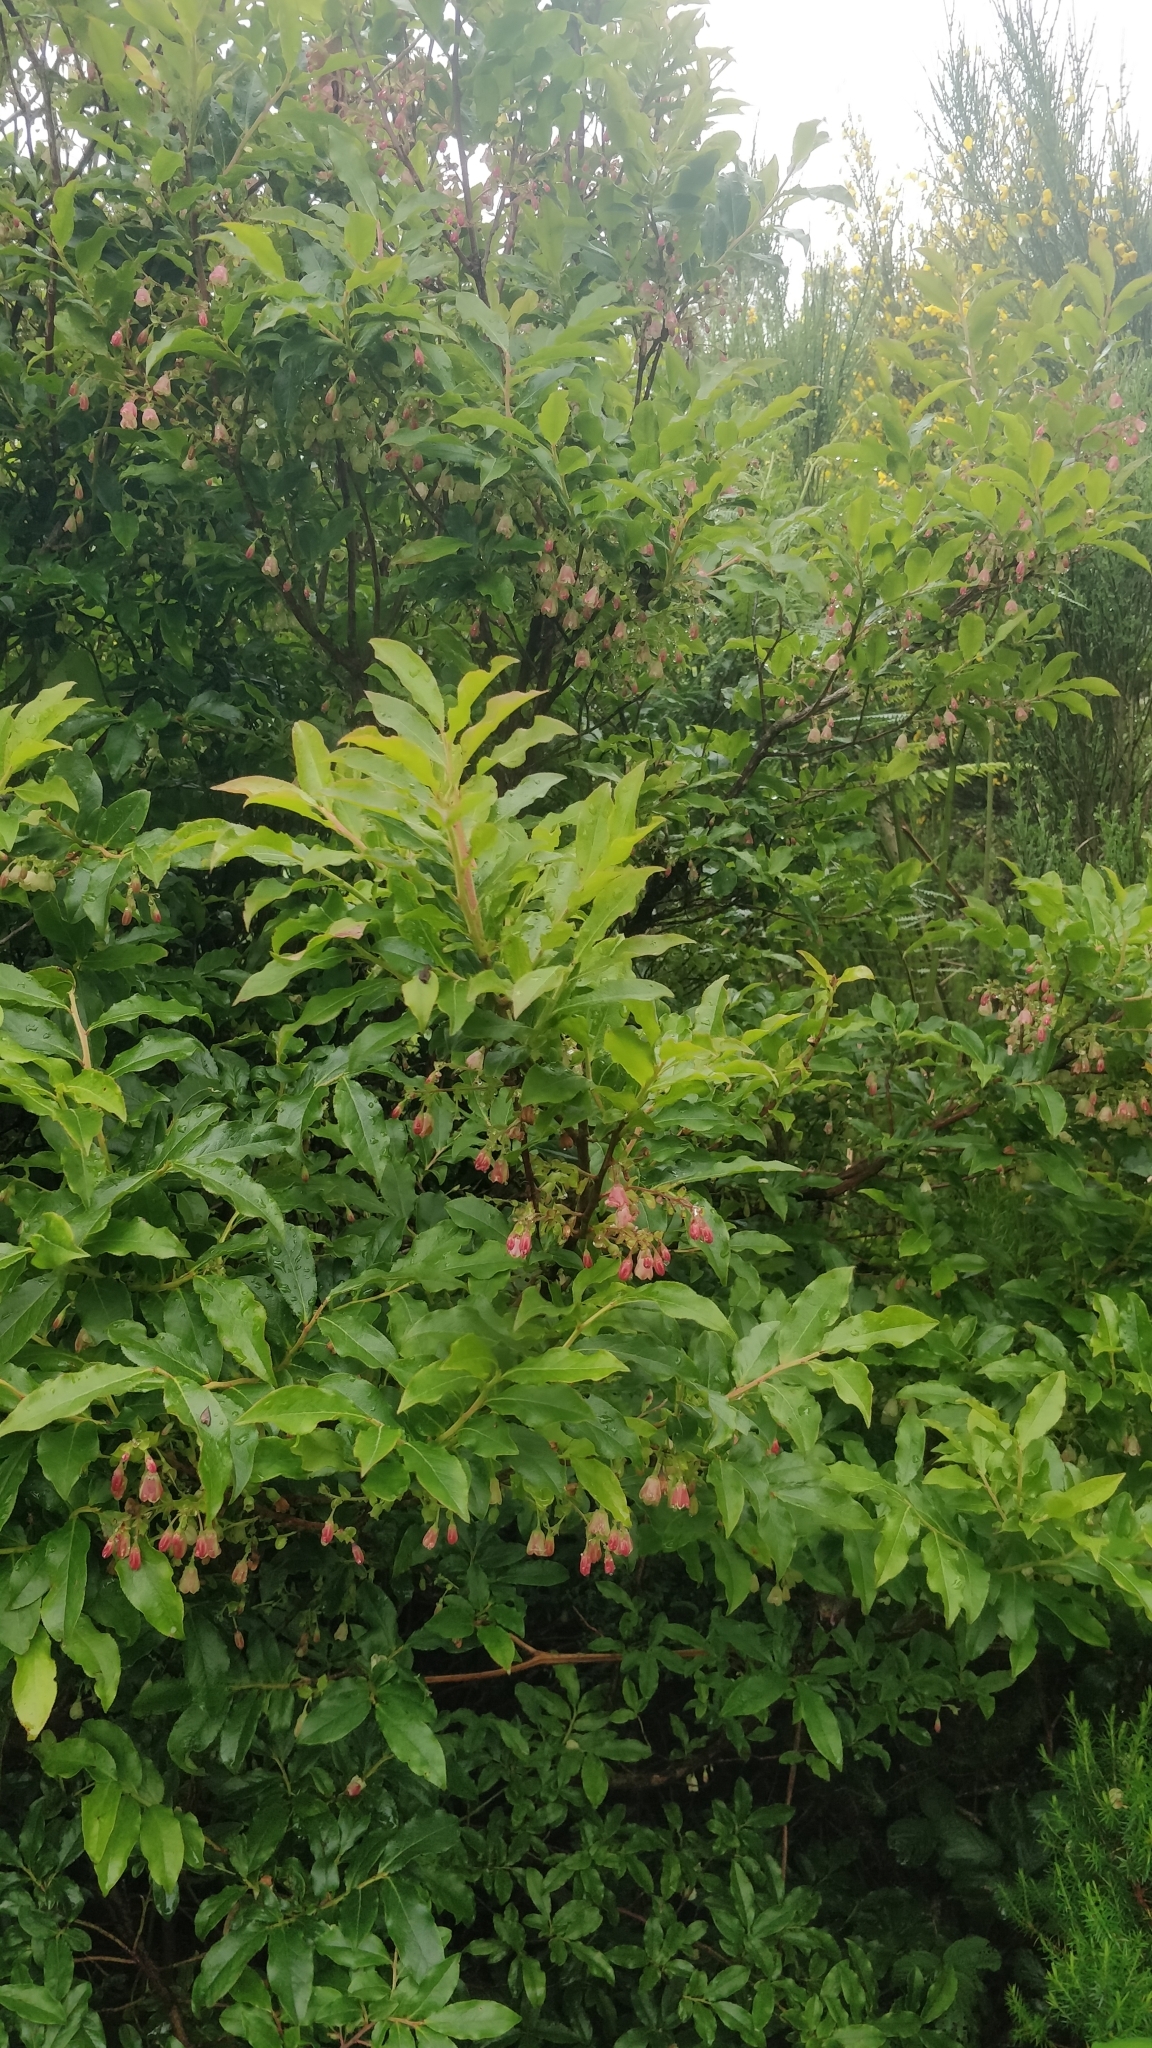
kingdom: Plantae
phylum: Tracheophyta
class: Magnoliopsida
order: Ericales
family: Ericaceae
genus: Vaccinium
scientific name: Vaccinium padifolium
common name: Madeiran blueberry
